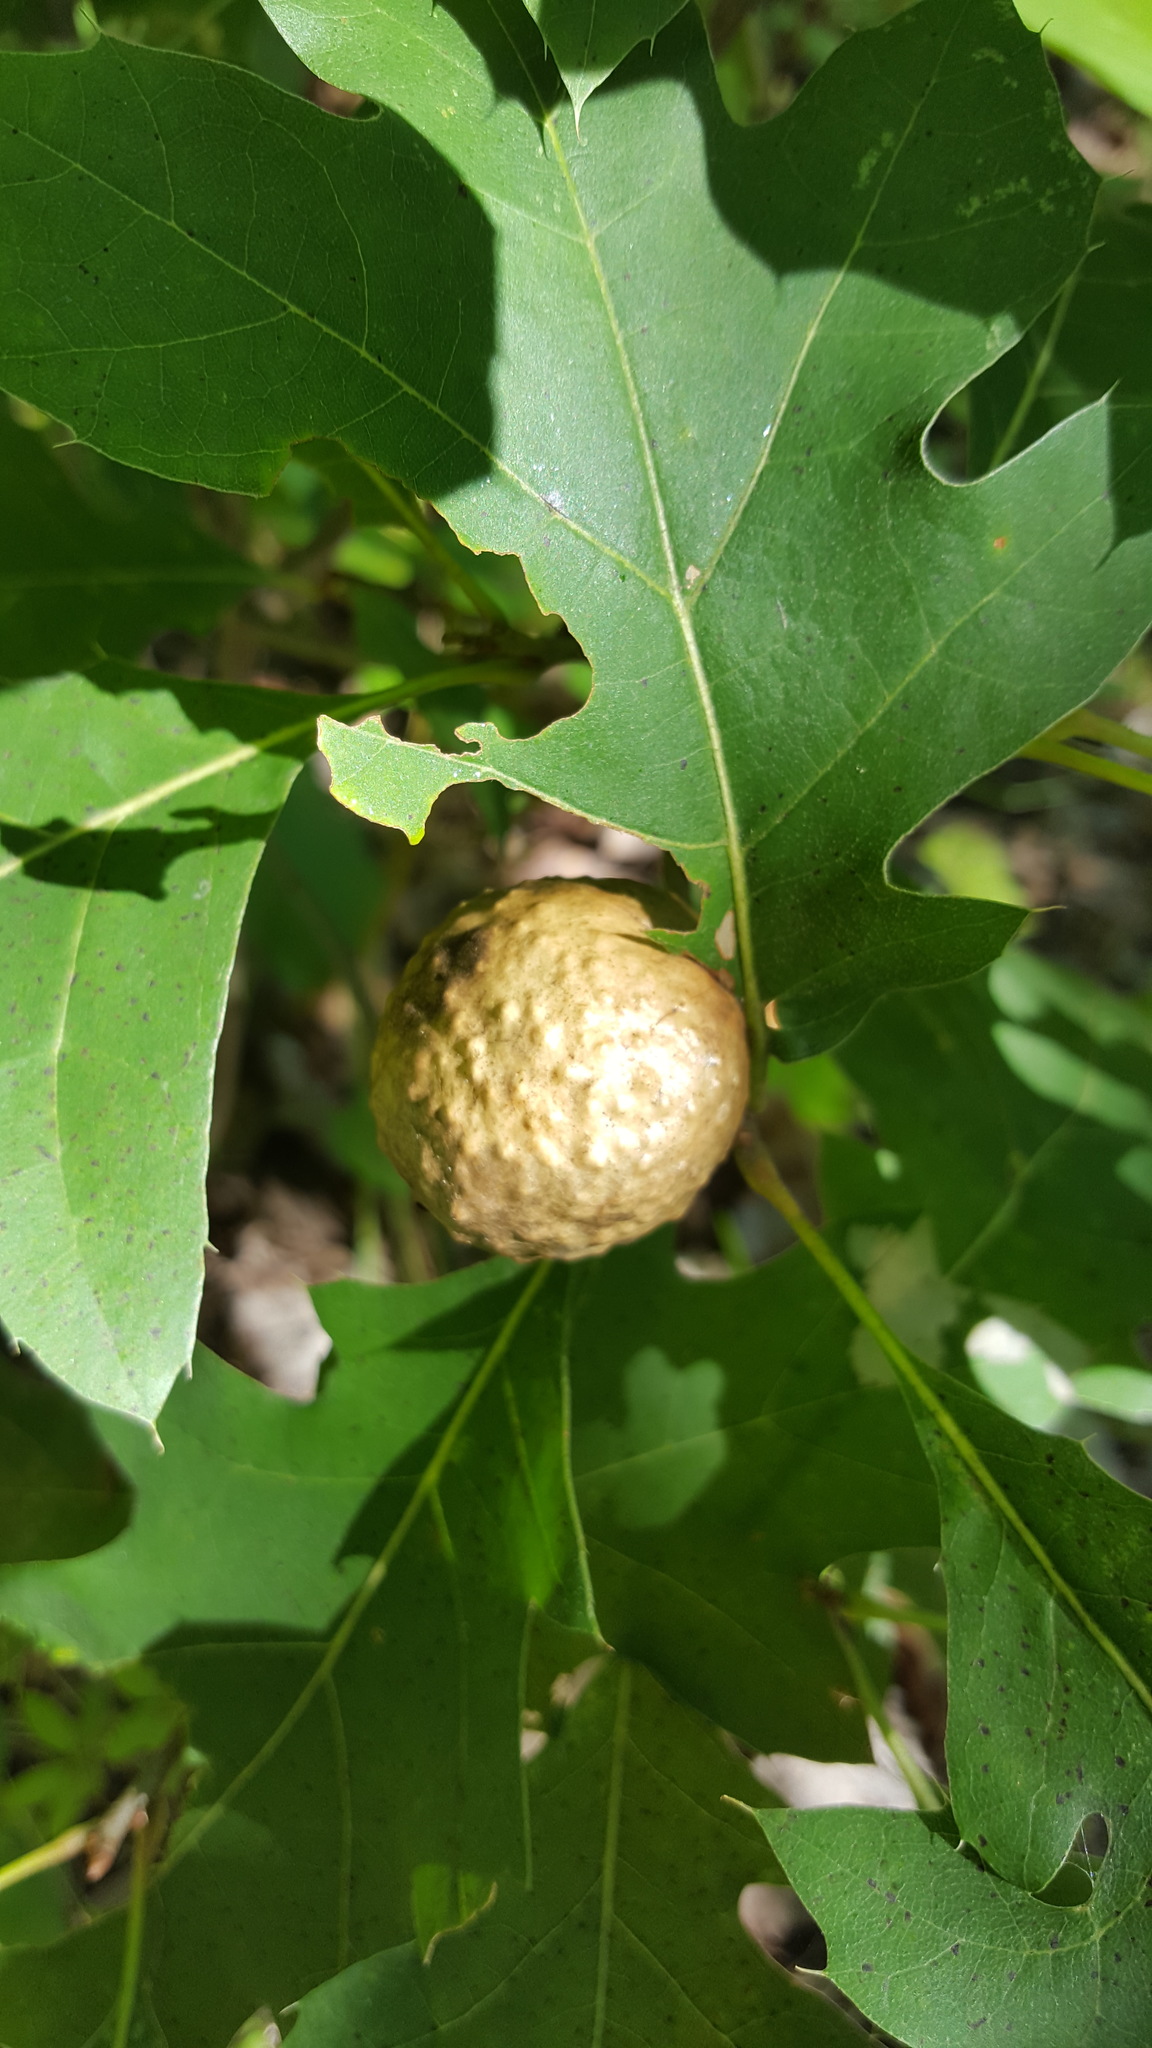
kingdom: Animalia
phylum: Arthropoda
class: Insecta
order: Hymenoptera
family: Cynipidae
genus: Amphibolips
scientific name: Amphibolips
